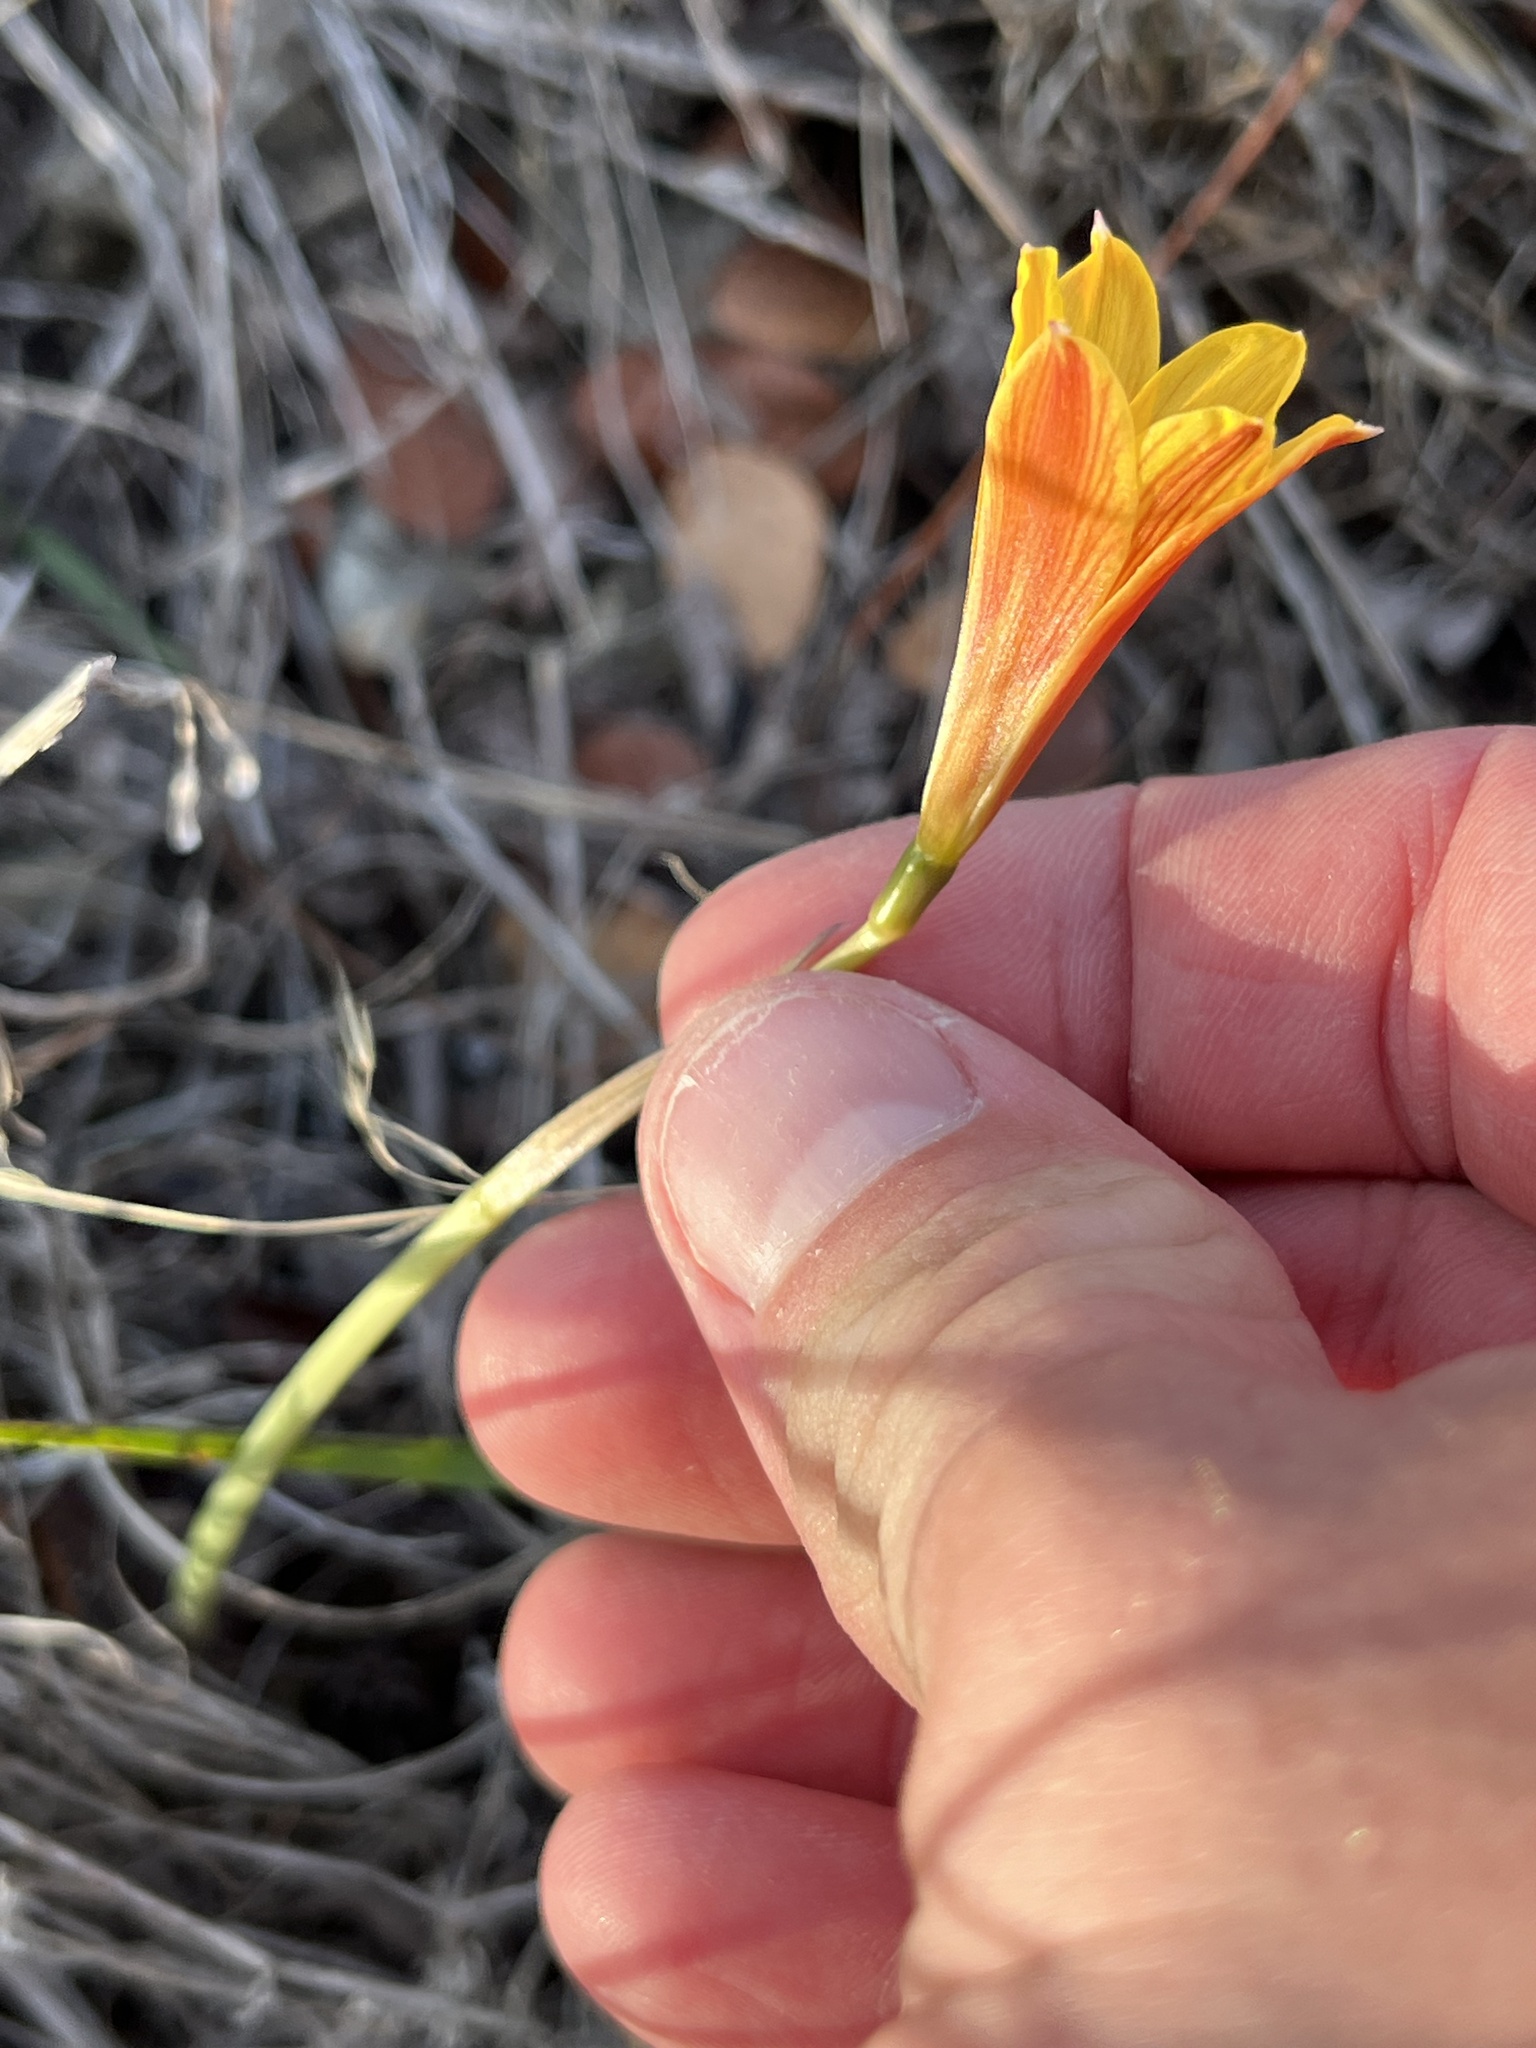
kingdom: Plantae
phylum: Tracheophyta
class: Liliopsida
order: Asparagales
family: Amaryllidaceae
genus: Zephyranthes
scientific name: Zephyranthes tubispatha
